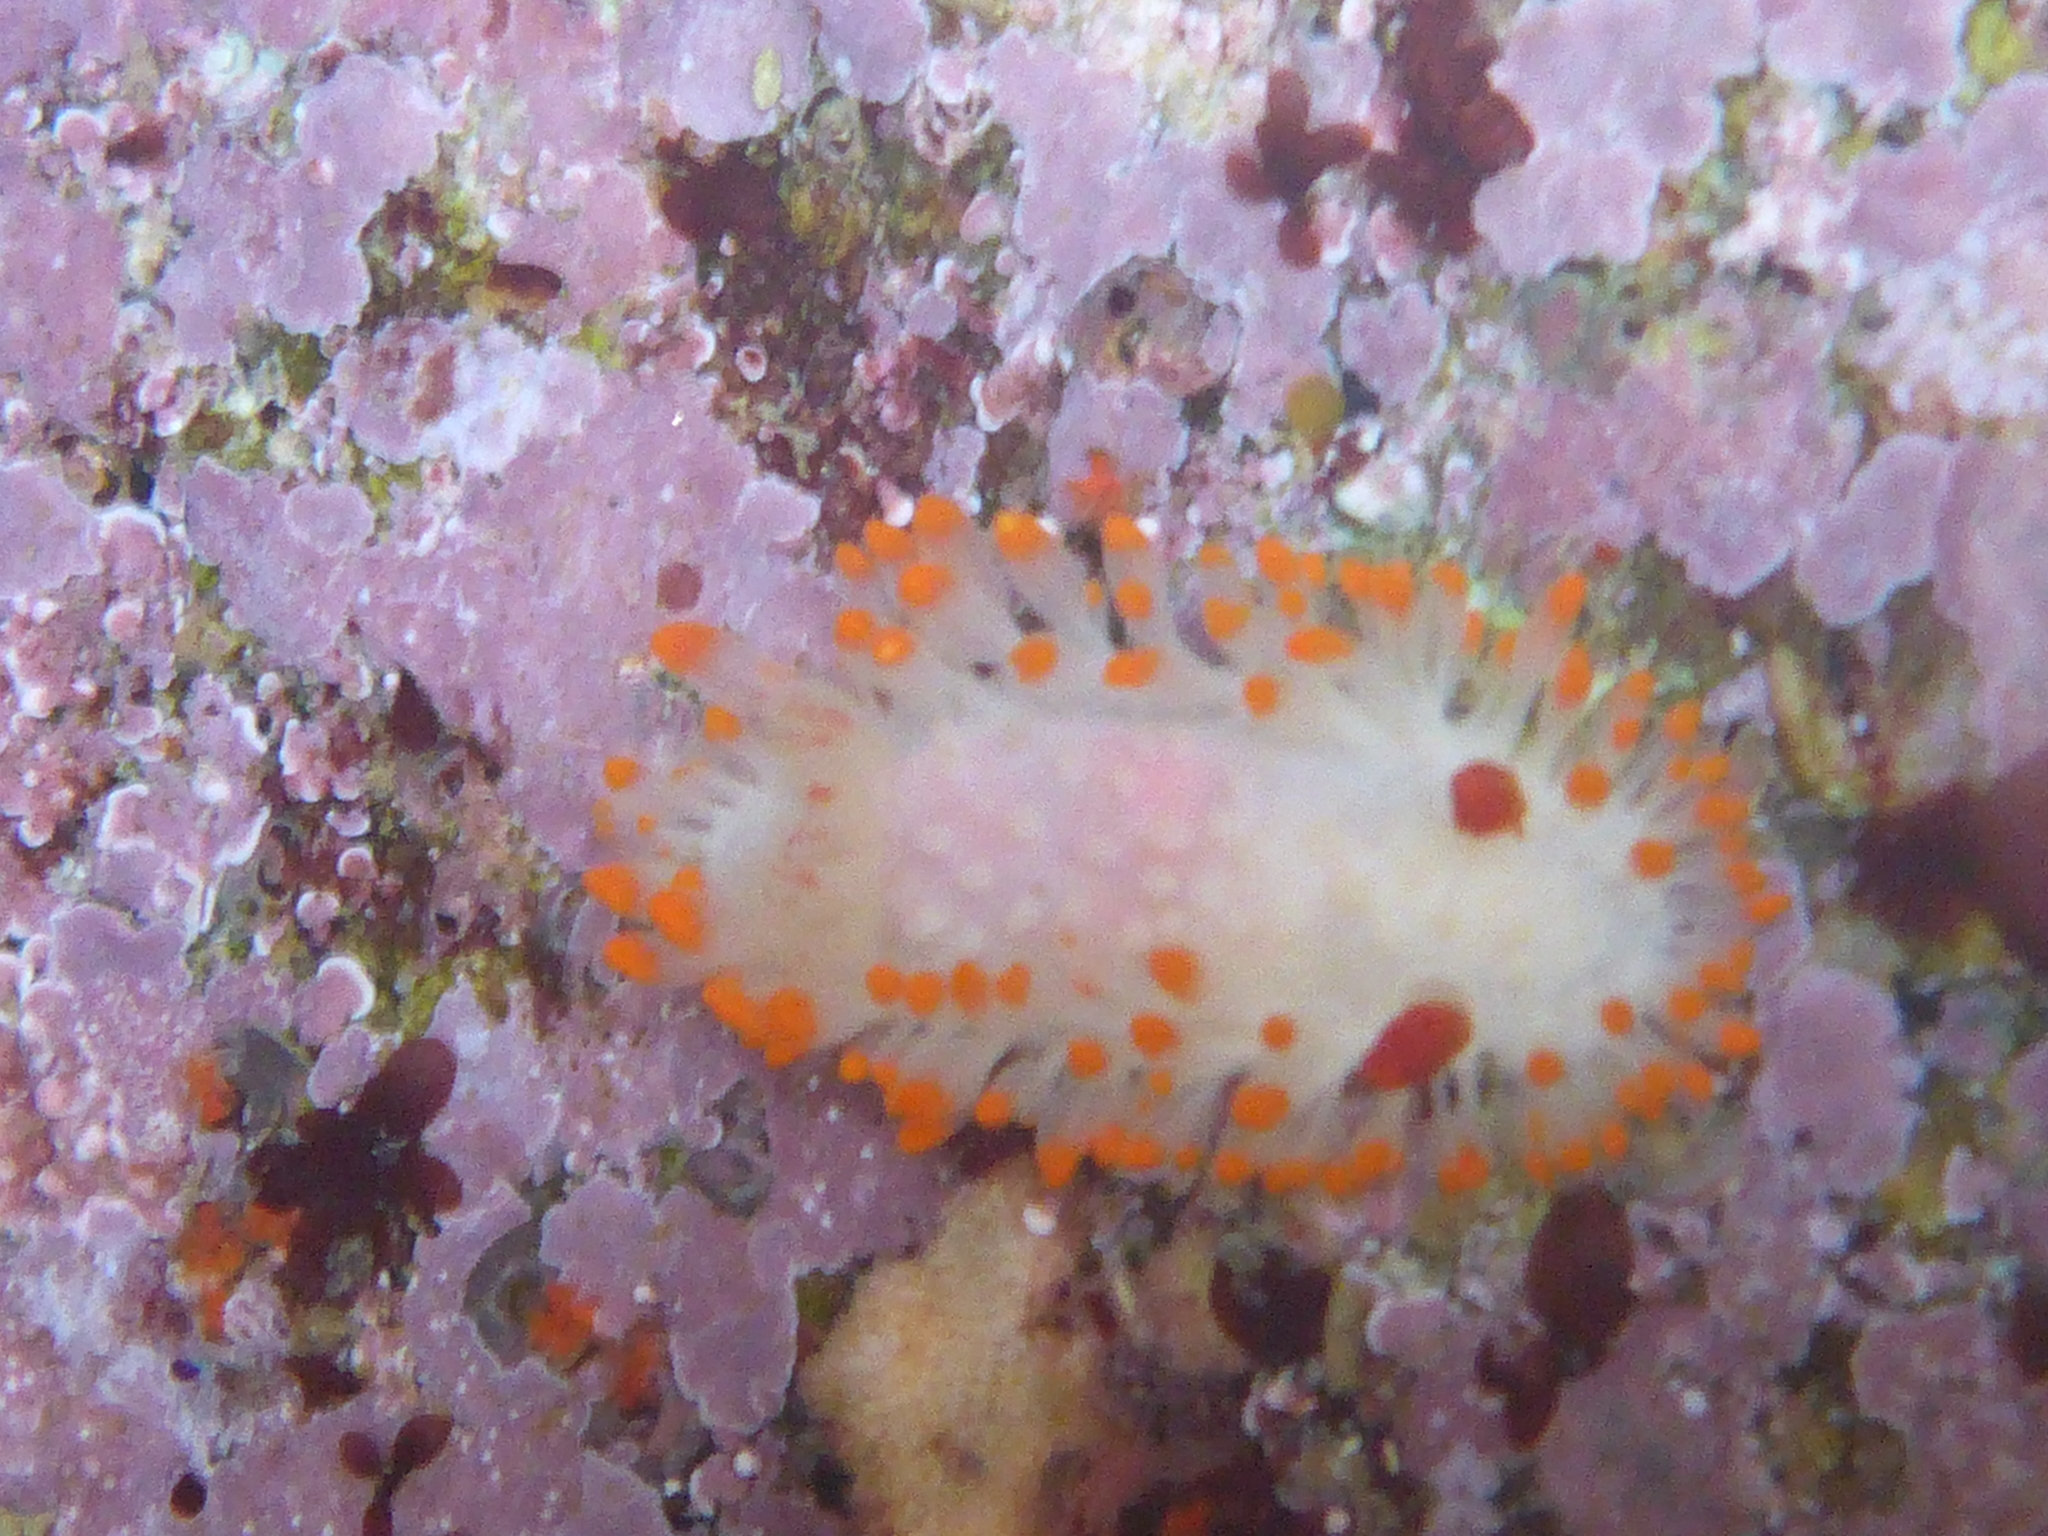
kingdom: Animalia
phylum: Mollusca
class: Gastropoda
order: Nudibranchia
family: Polyceridae
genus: Limacia
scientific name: Limacia cockerelli
